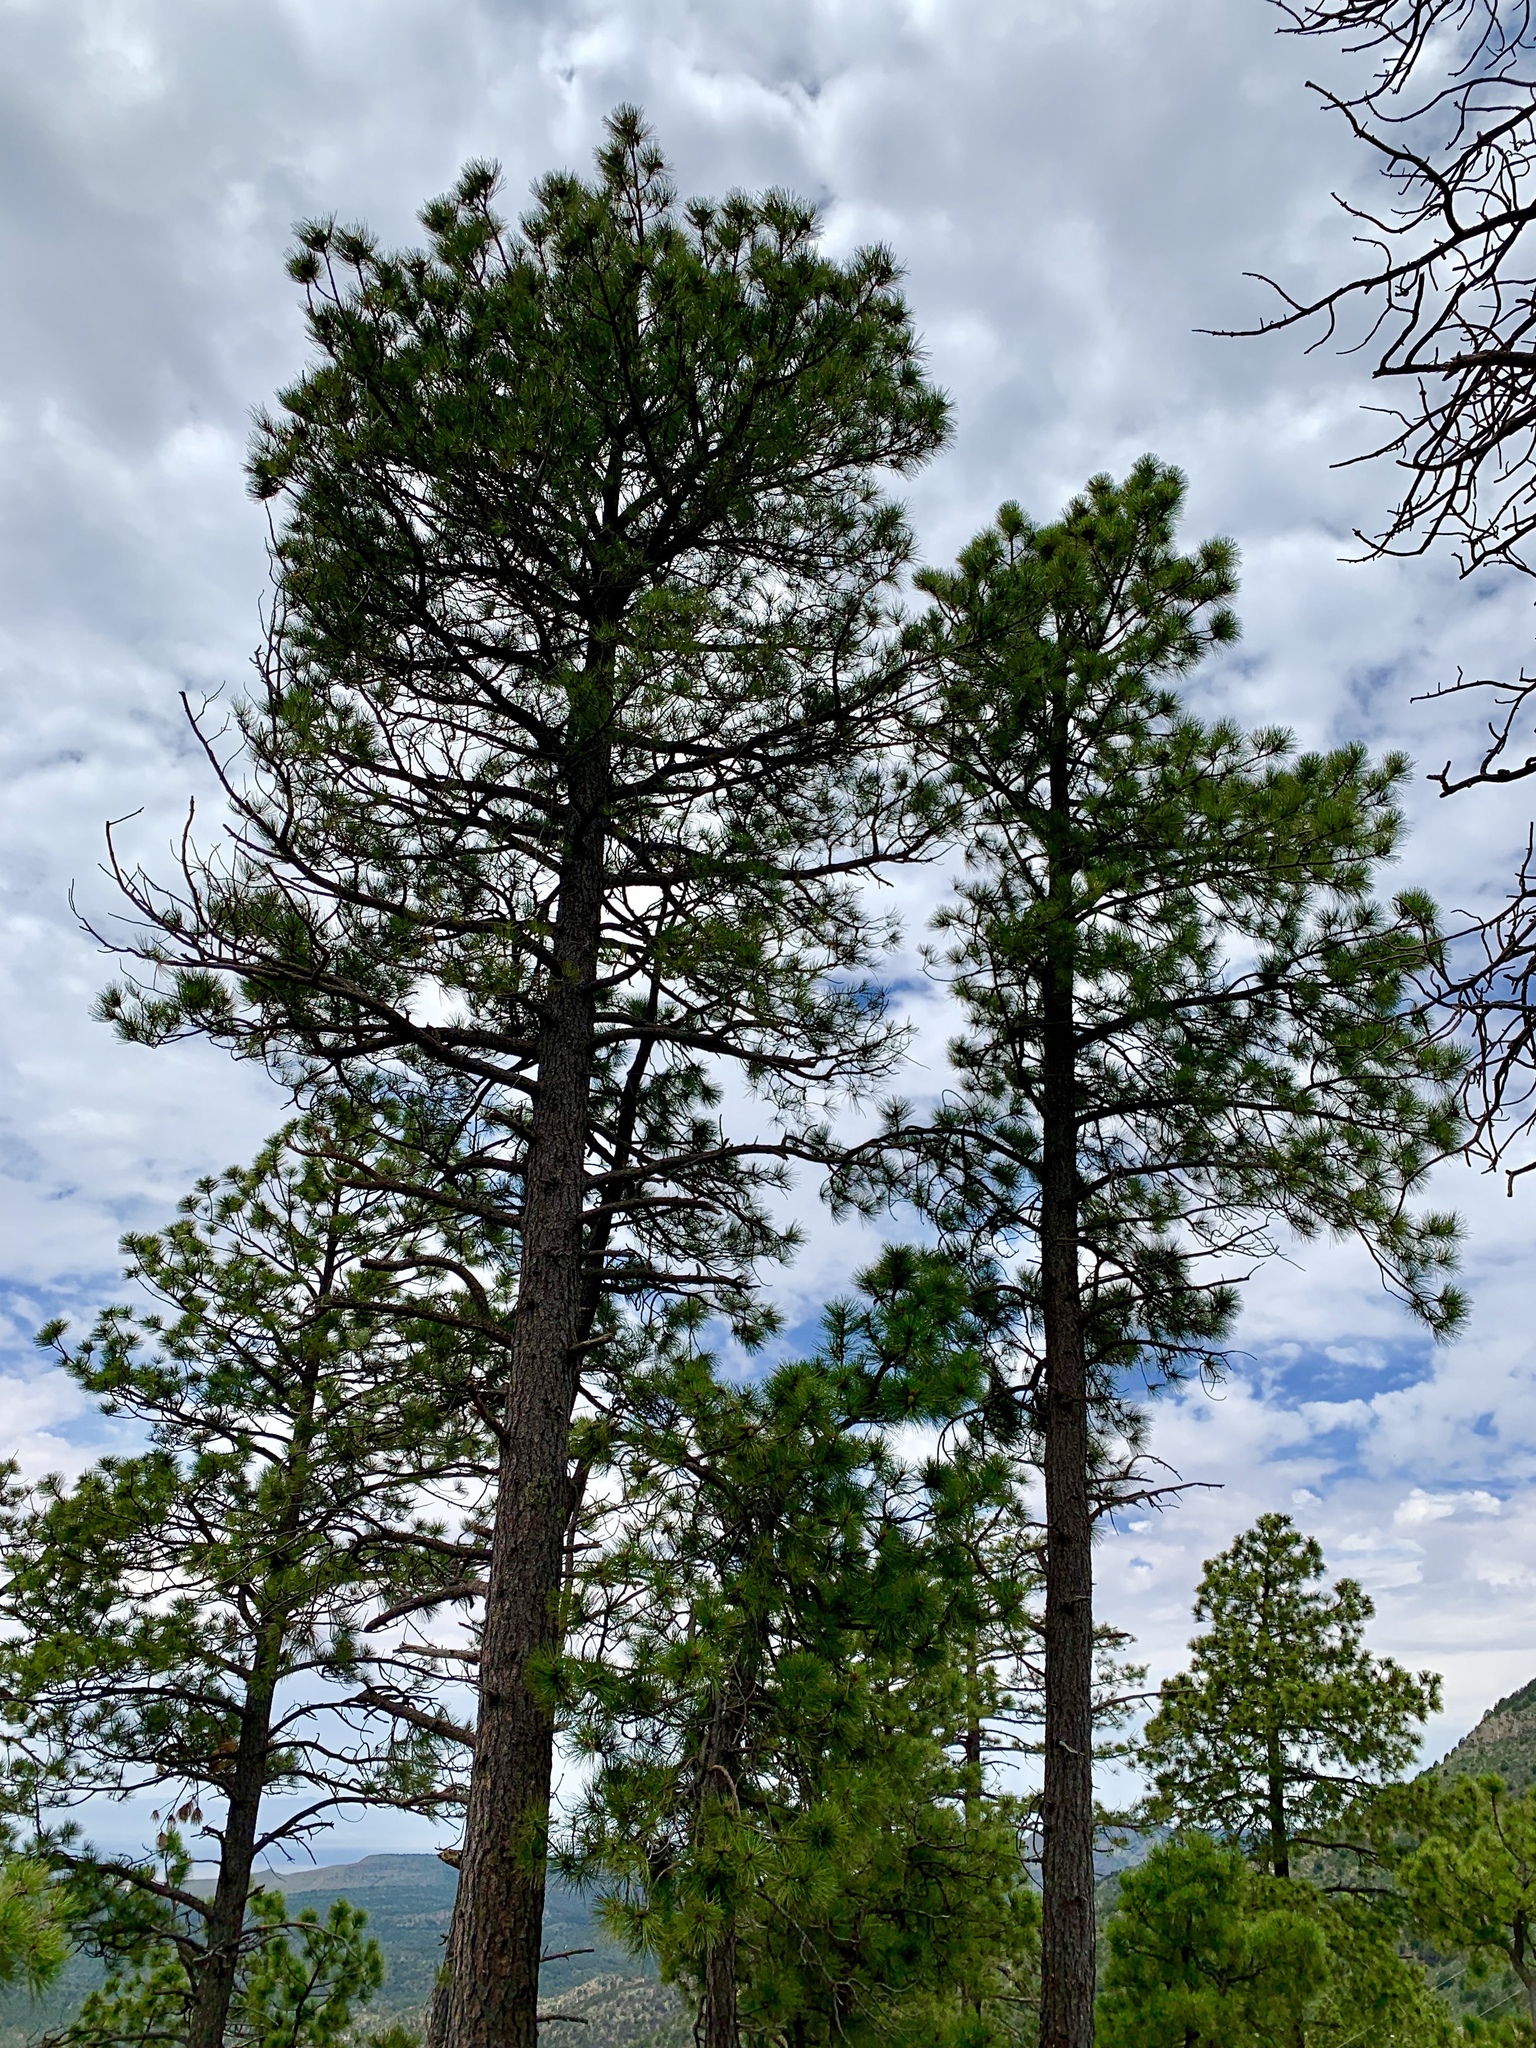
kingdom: Plantae
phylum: Tracheophyta
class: Pinopsida
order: Pinales
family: Pinaceae
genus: Pinus
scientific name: Pinus ponderosa
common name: Western yellow-pine
